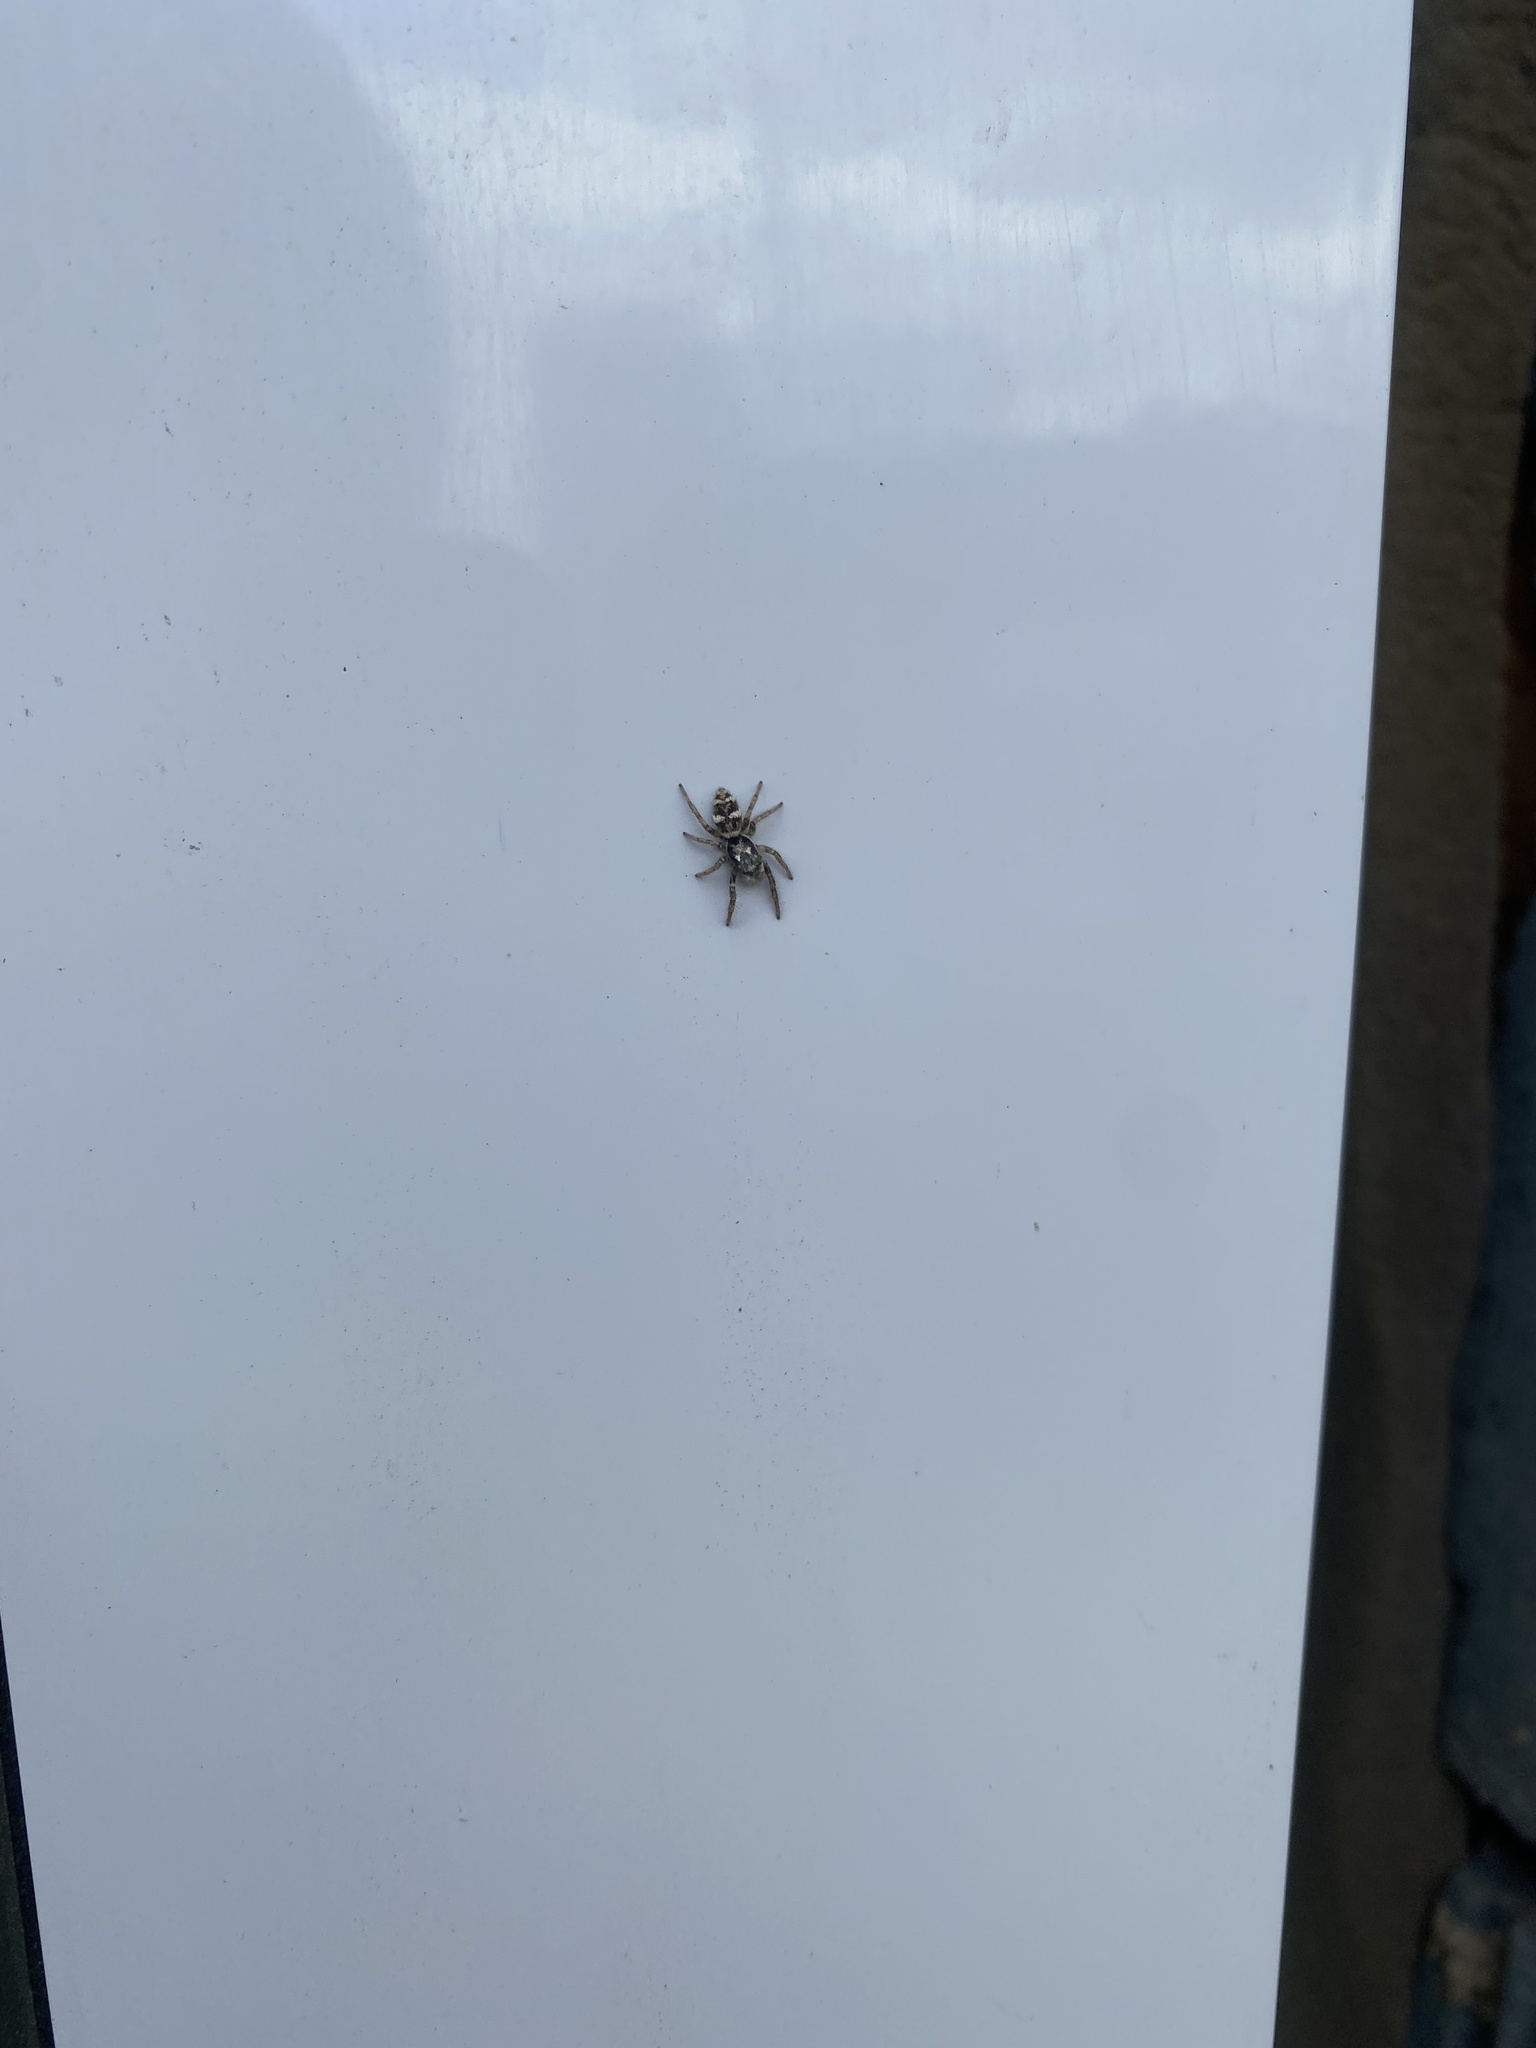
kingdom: Animalia
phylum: Arthropoda
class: Arachnida
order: Araneae
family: Salticidae
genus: Salticus
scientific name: Salticus scenicus
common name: Zebra jumper
